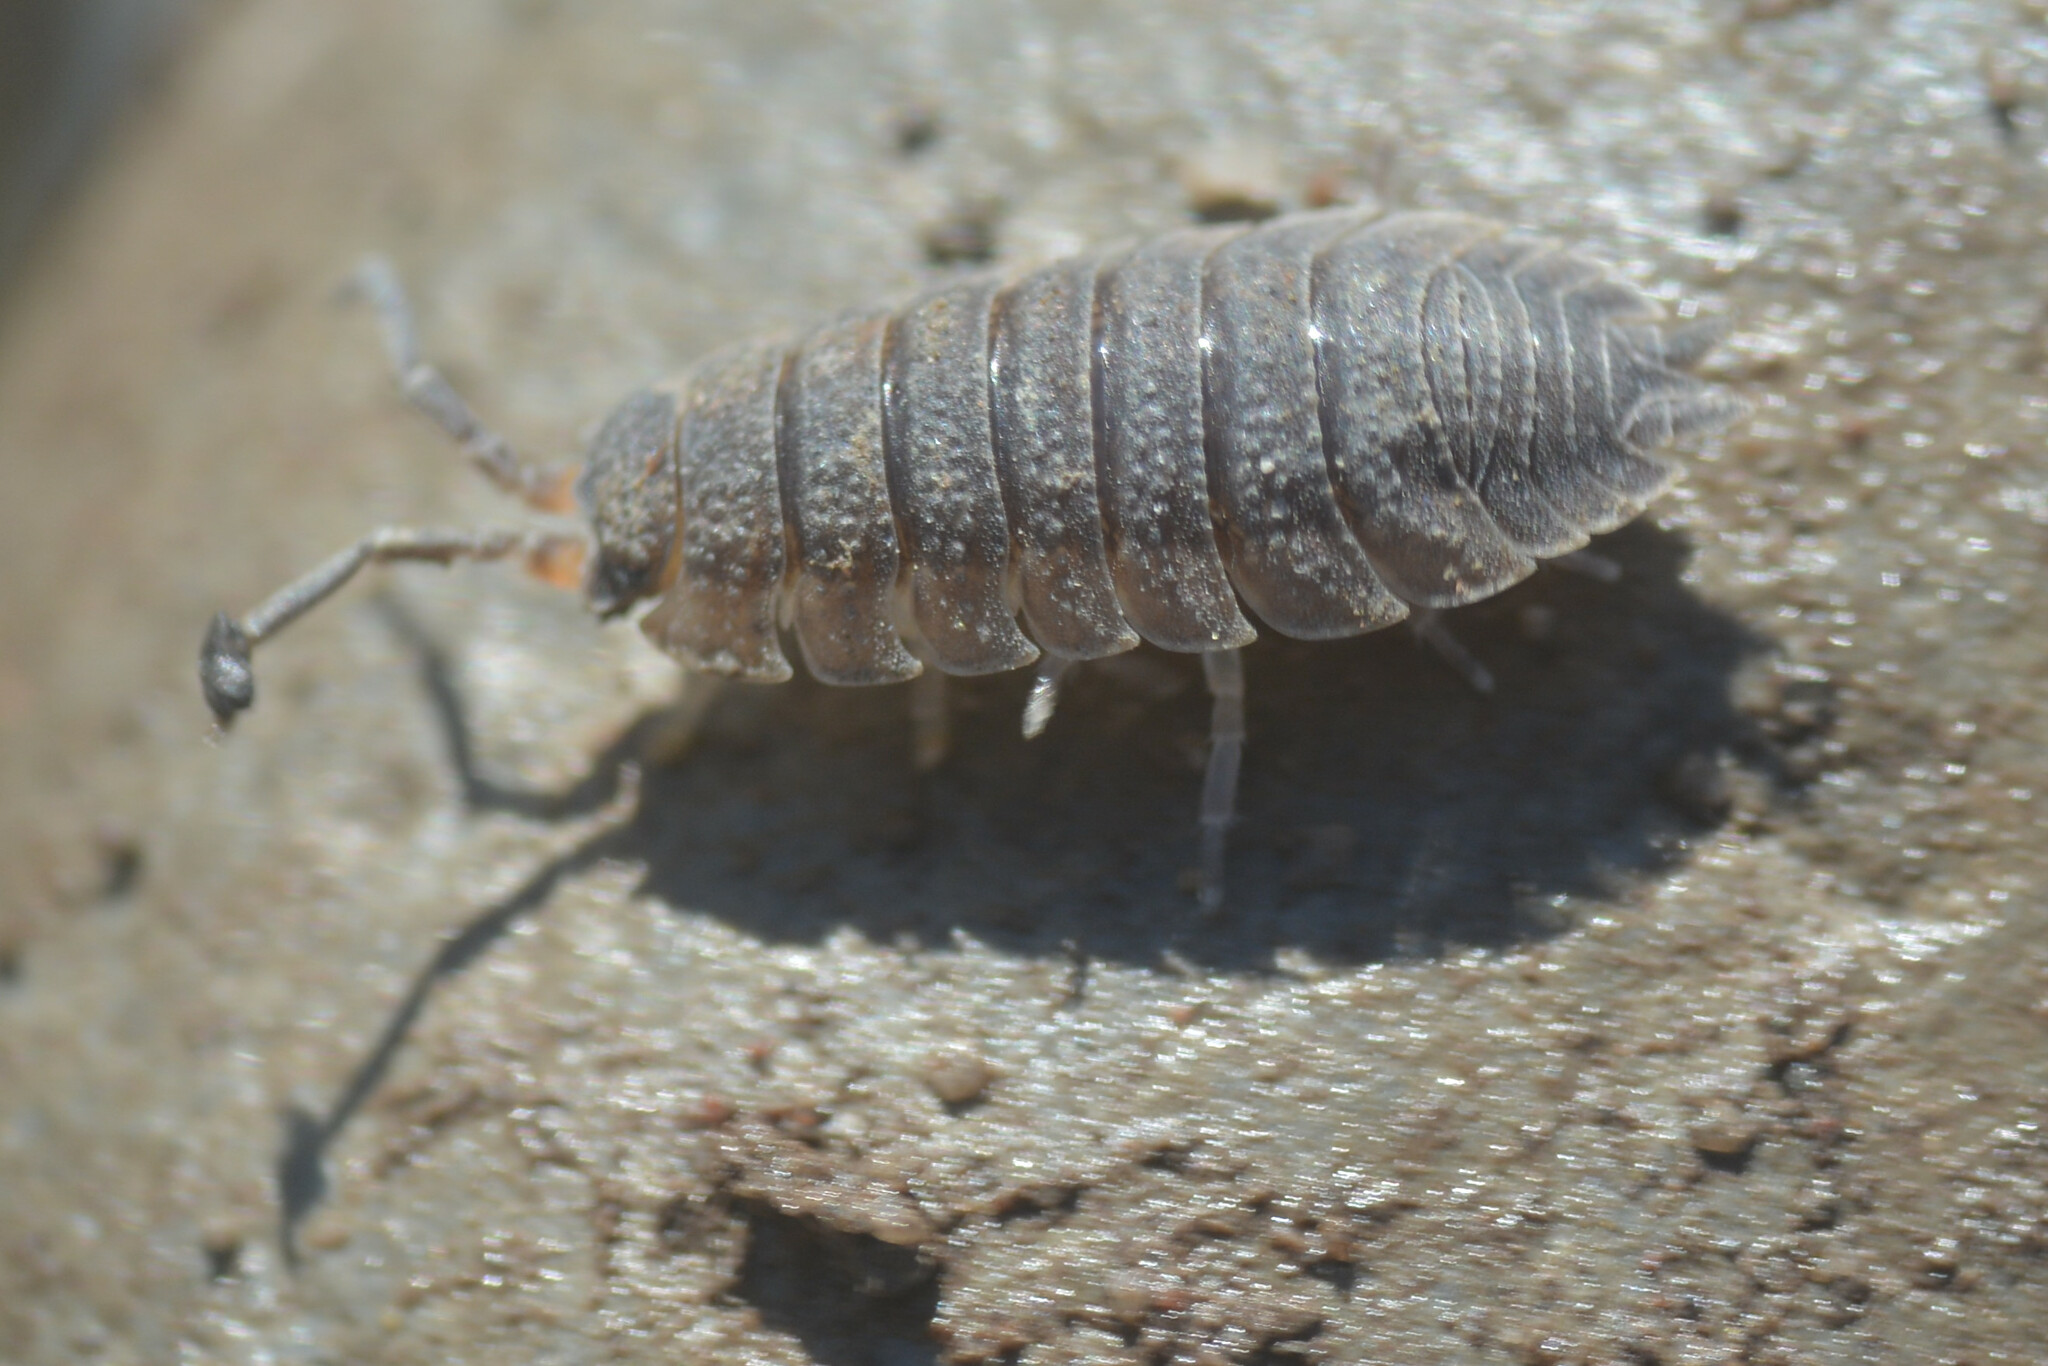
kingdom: Animalia
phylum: Arthropoda
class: Malacostraca
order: Isopoda
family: Porcellionidae
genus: Porcellio
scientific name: Porcellio scaber
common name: Common rough woodlouse
